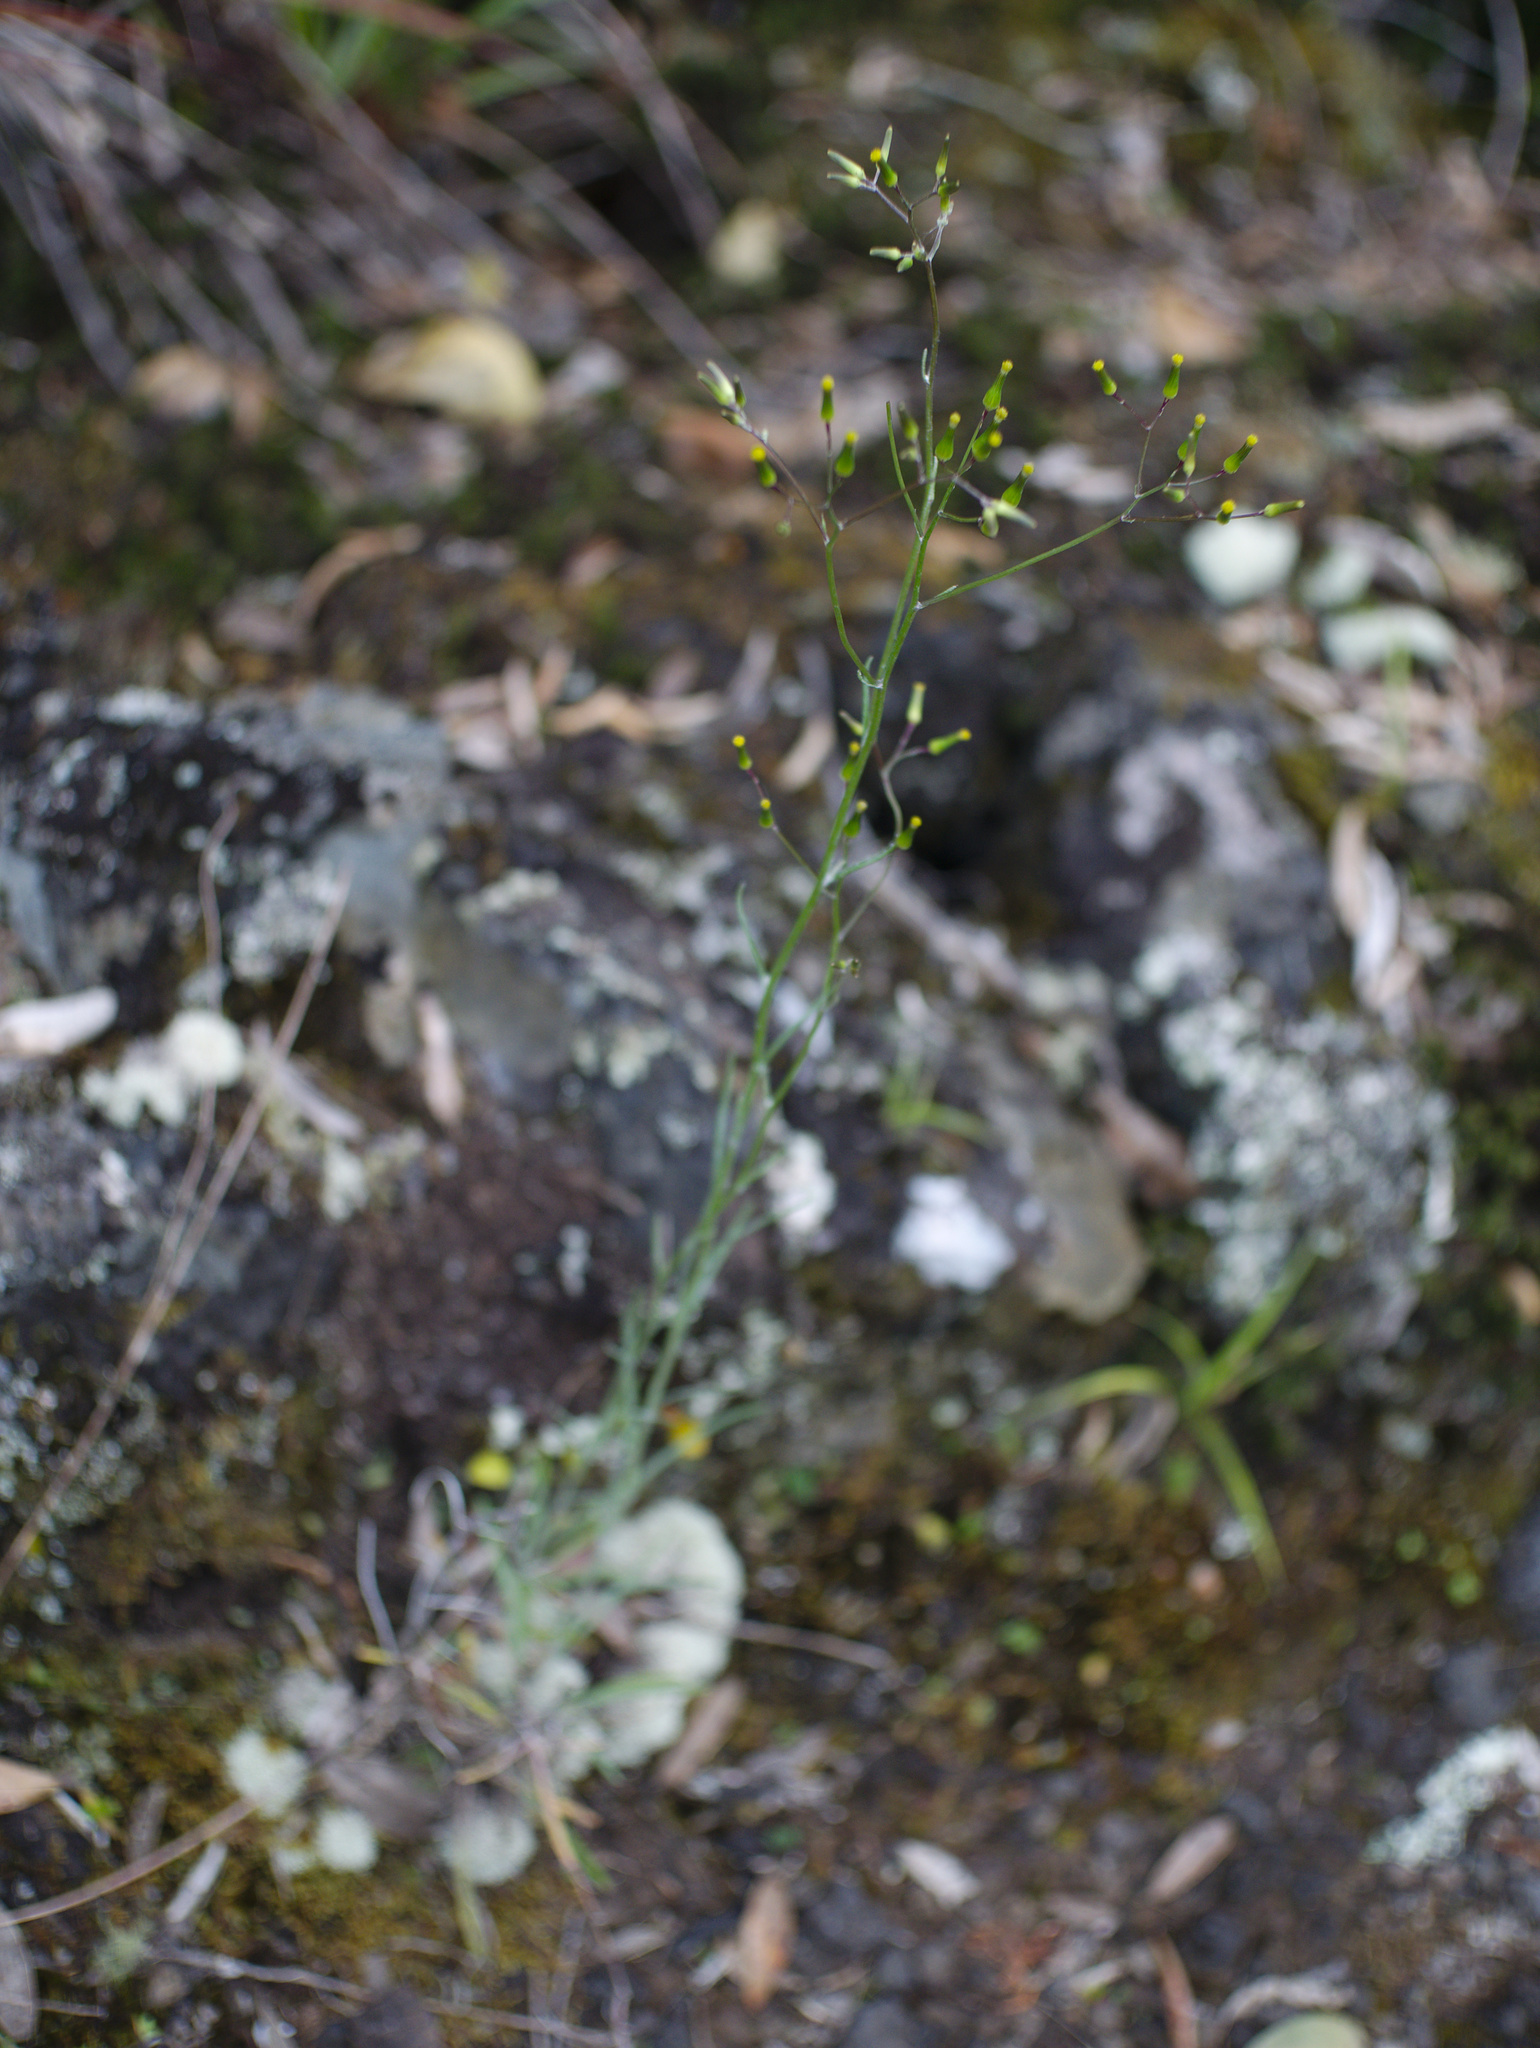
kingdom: Plantae
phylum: Tracheophyta
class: Magnoliopsida
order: Asterales
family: Asteraceae
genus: Senecio
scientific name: Senecio quadridentatus
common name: Cotton fireweed
